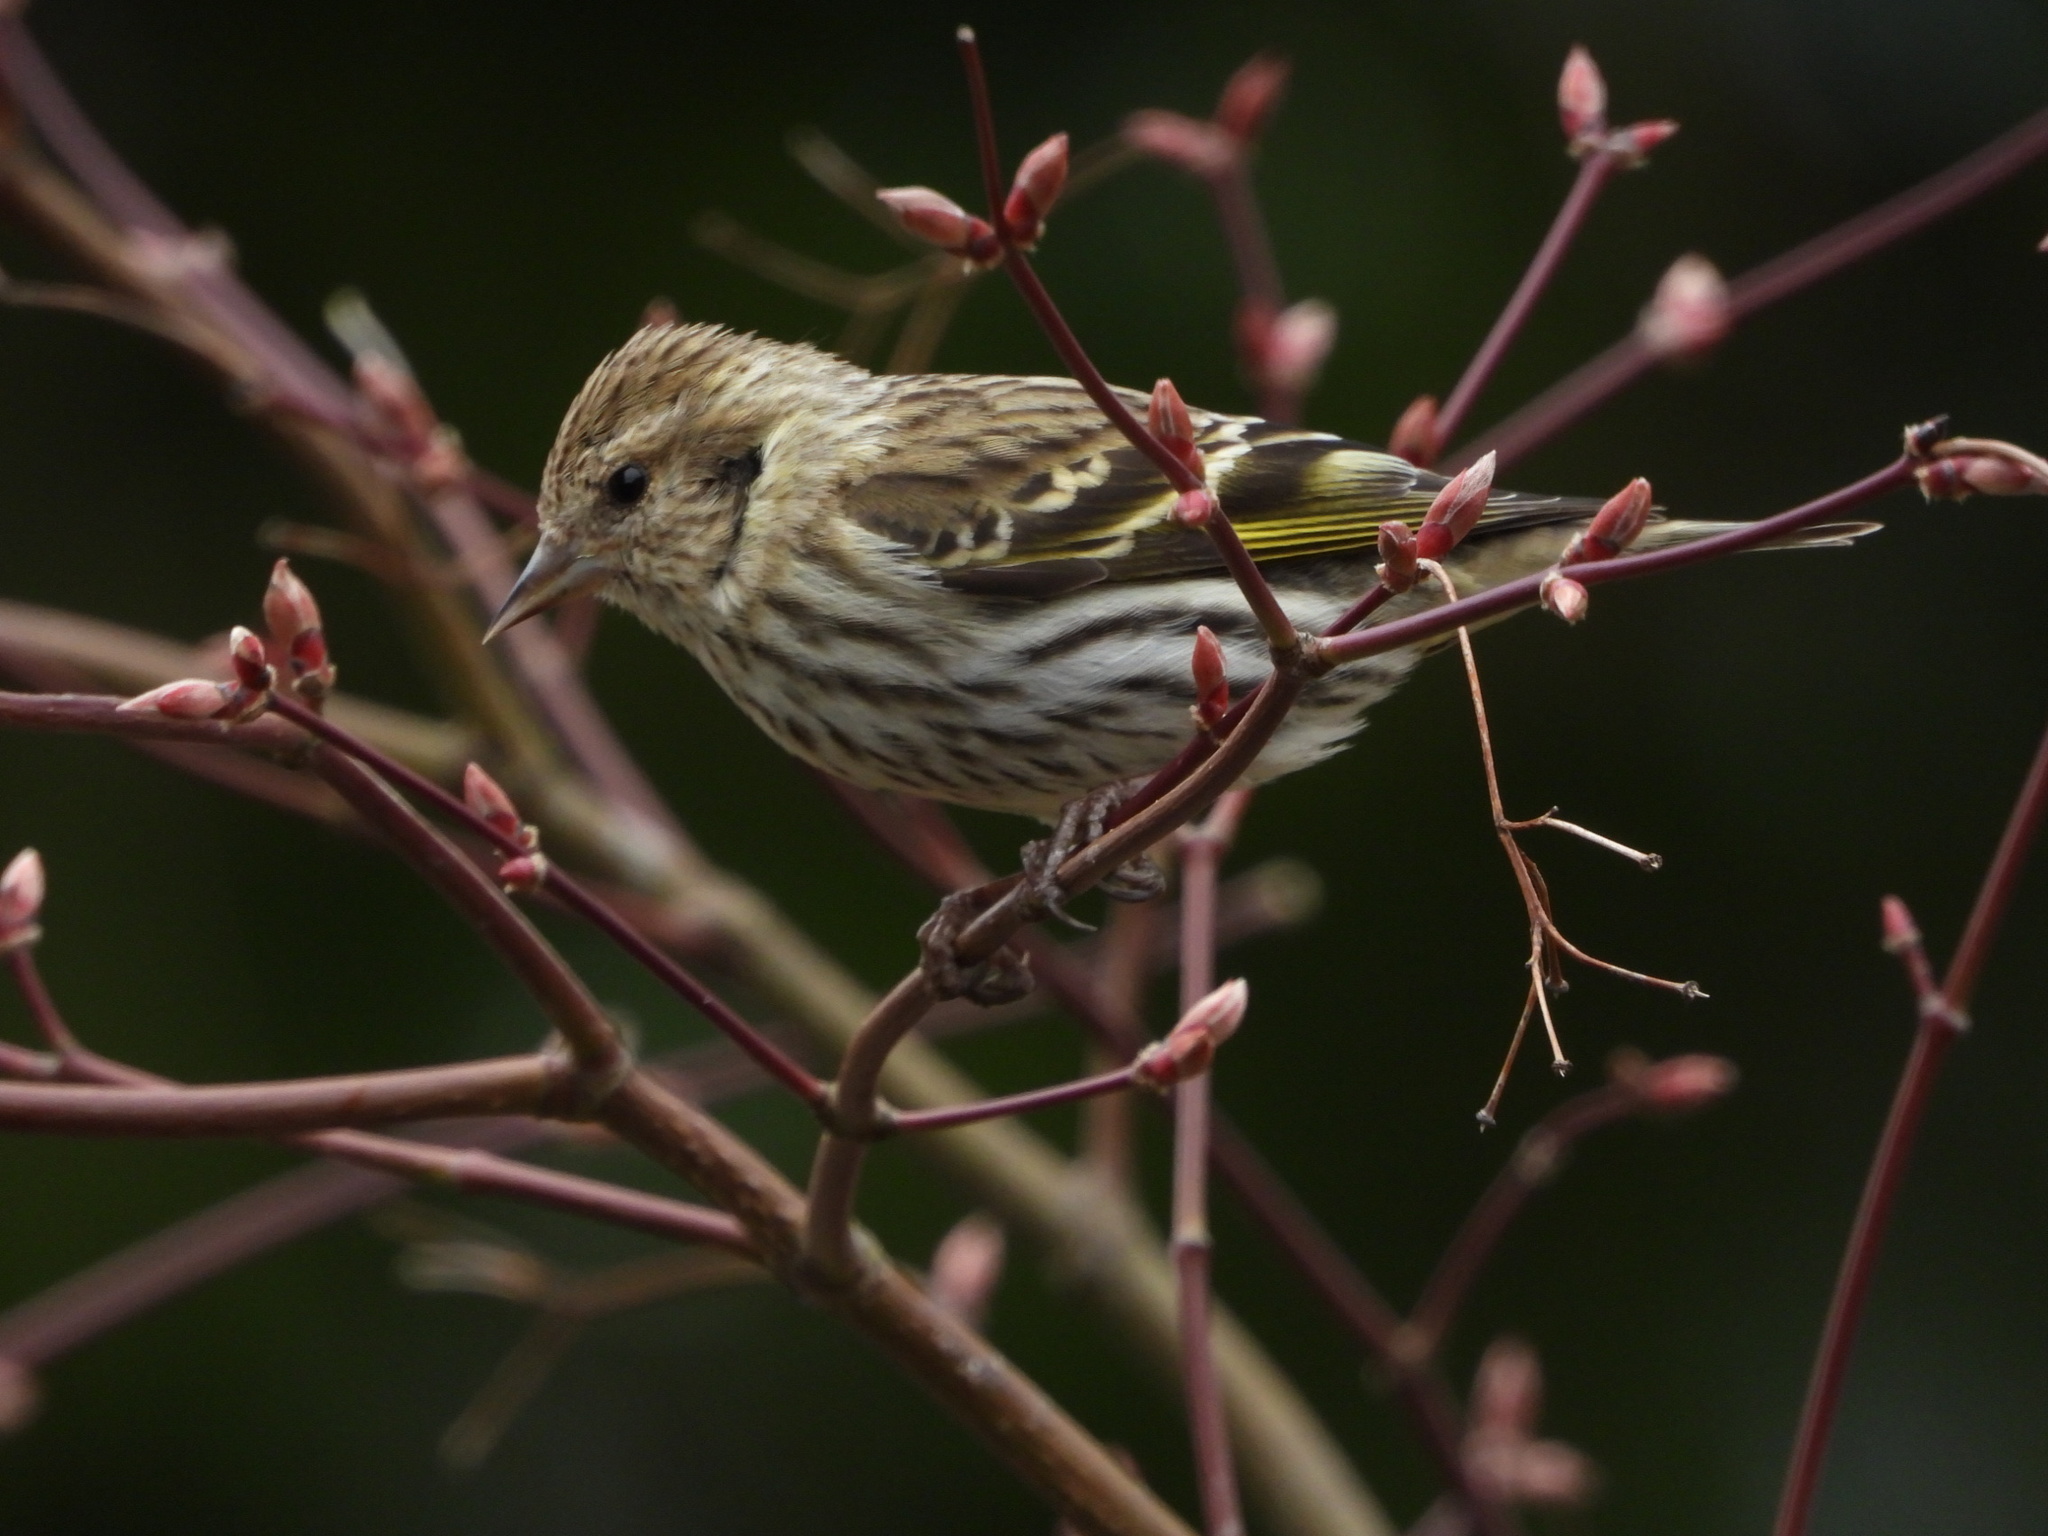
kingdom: Animalia
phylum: Chordata
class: Aves
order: Passeriformes
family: Fringillidae
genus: Spinus
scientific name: Spinus pinus
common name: Pine siskin
